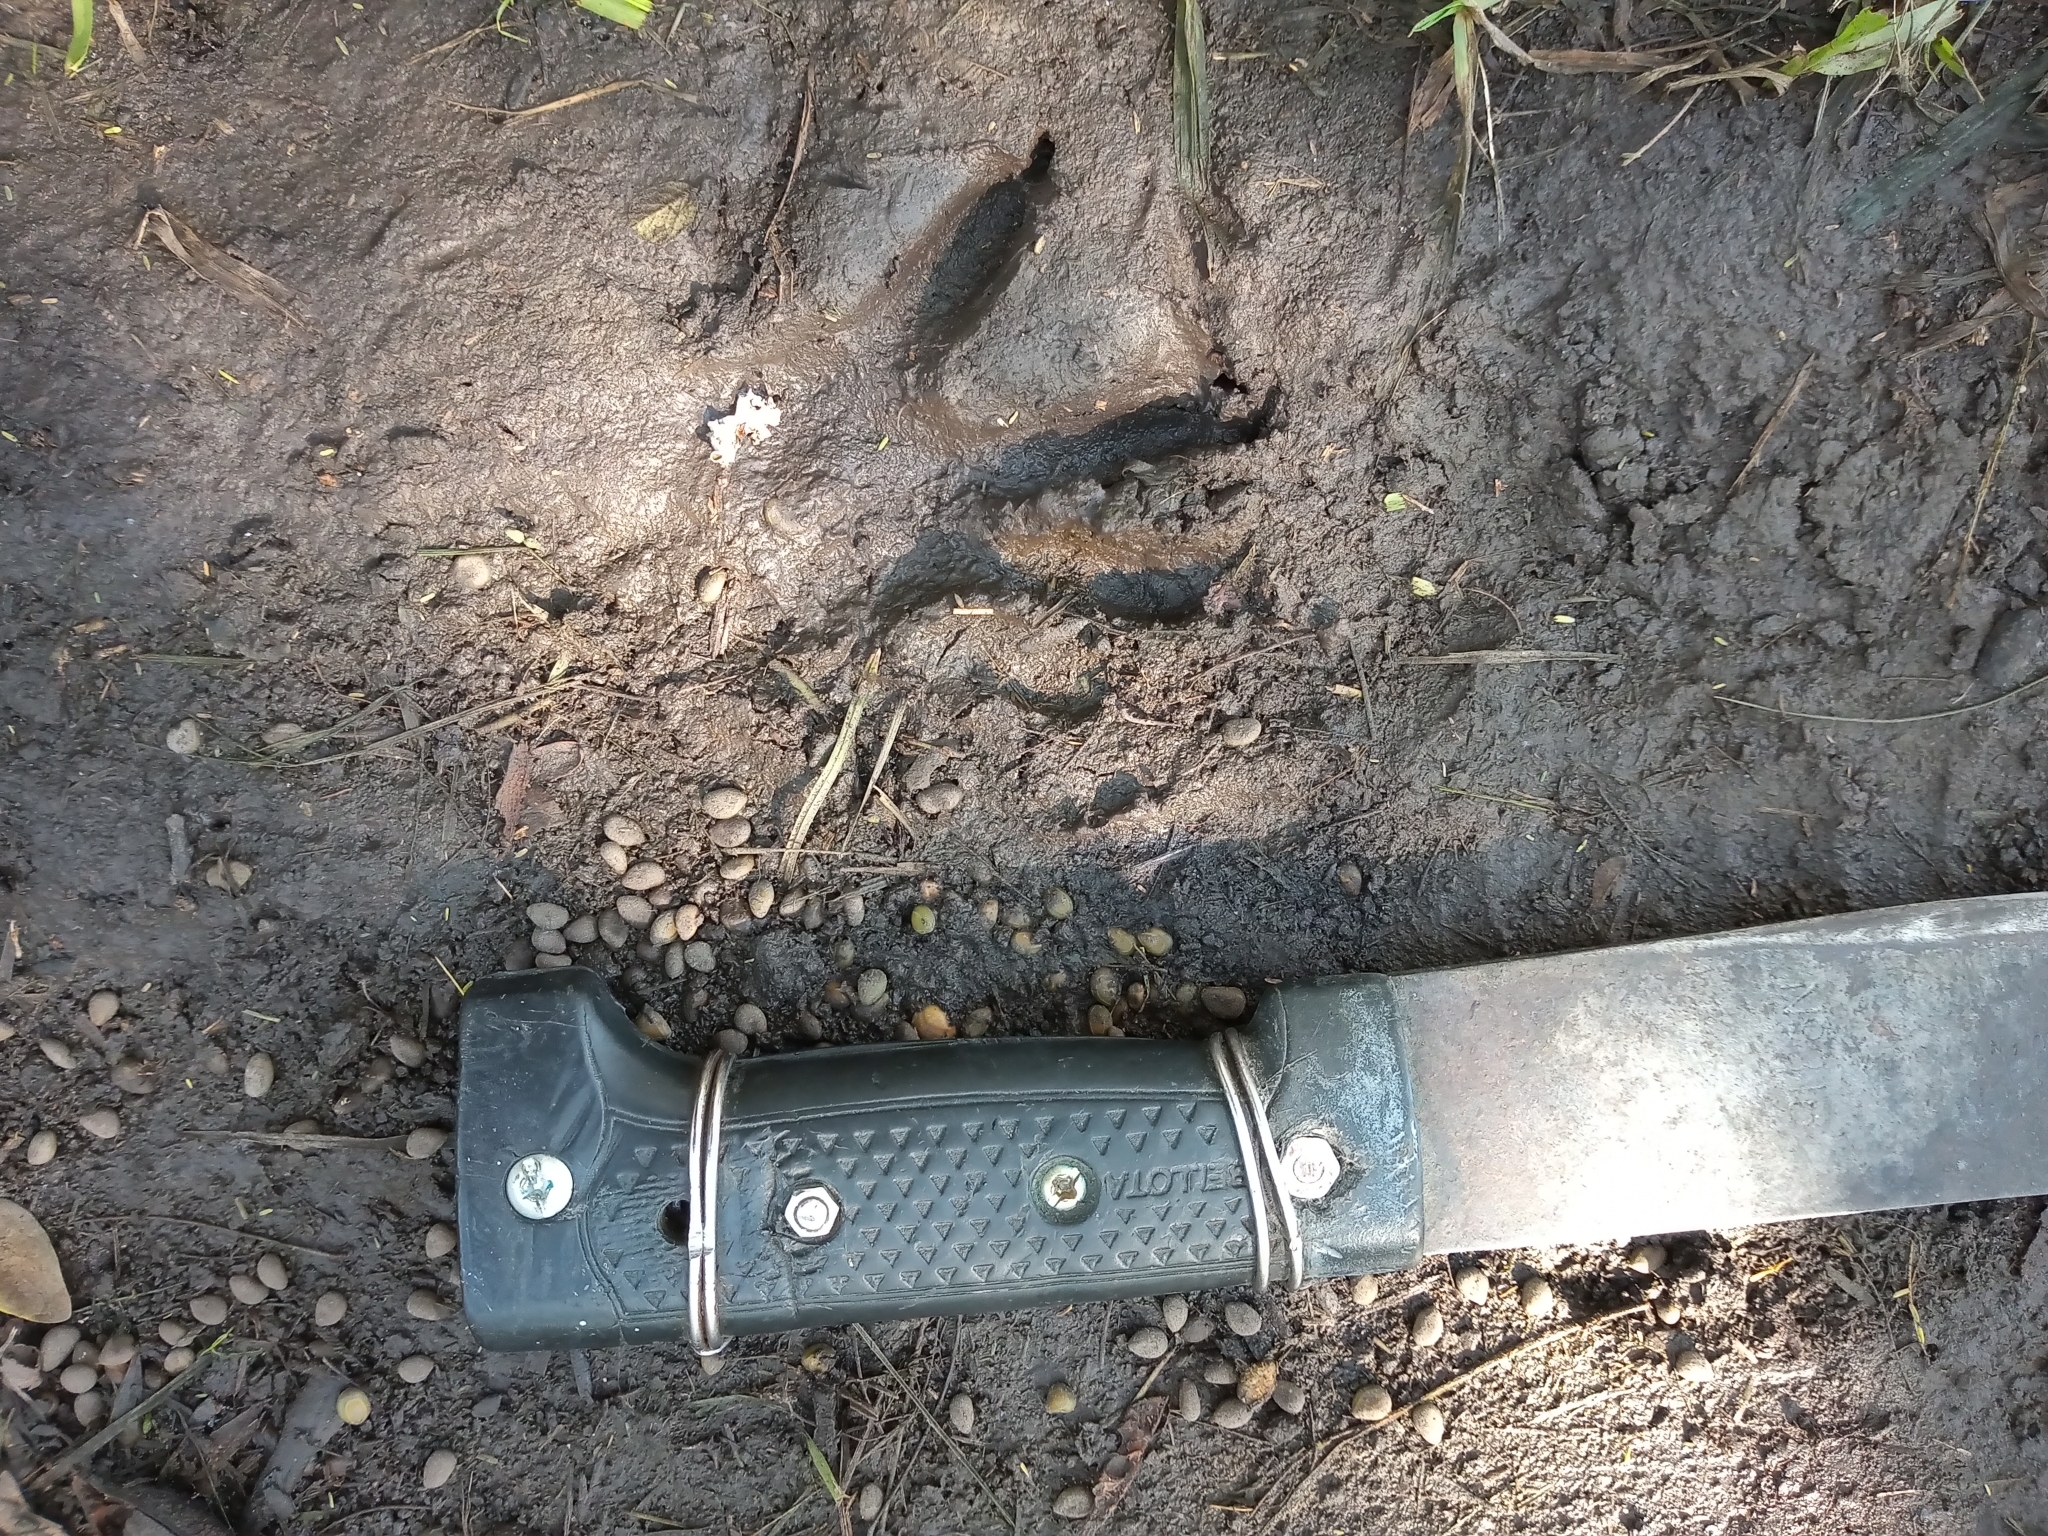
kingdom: Animalia
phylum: Chordata
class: Mammalia
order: Carnivora
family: Procyonidae
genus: Procyon
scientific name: Procyon cancrivorus
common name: Crab-eating raccoon
